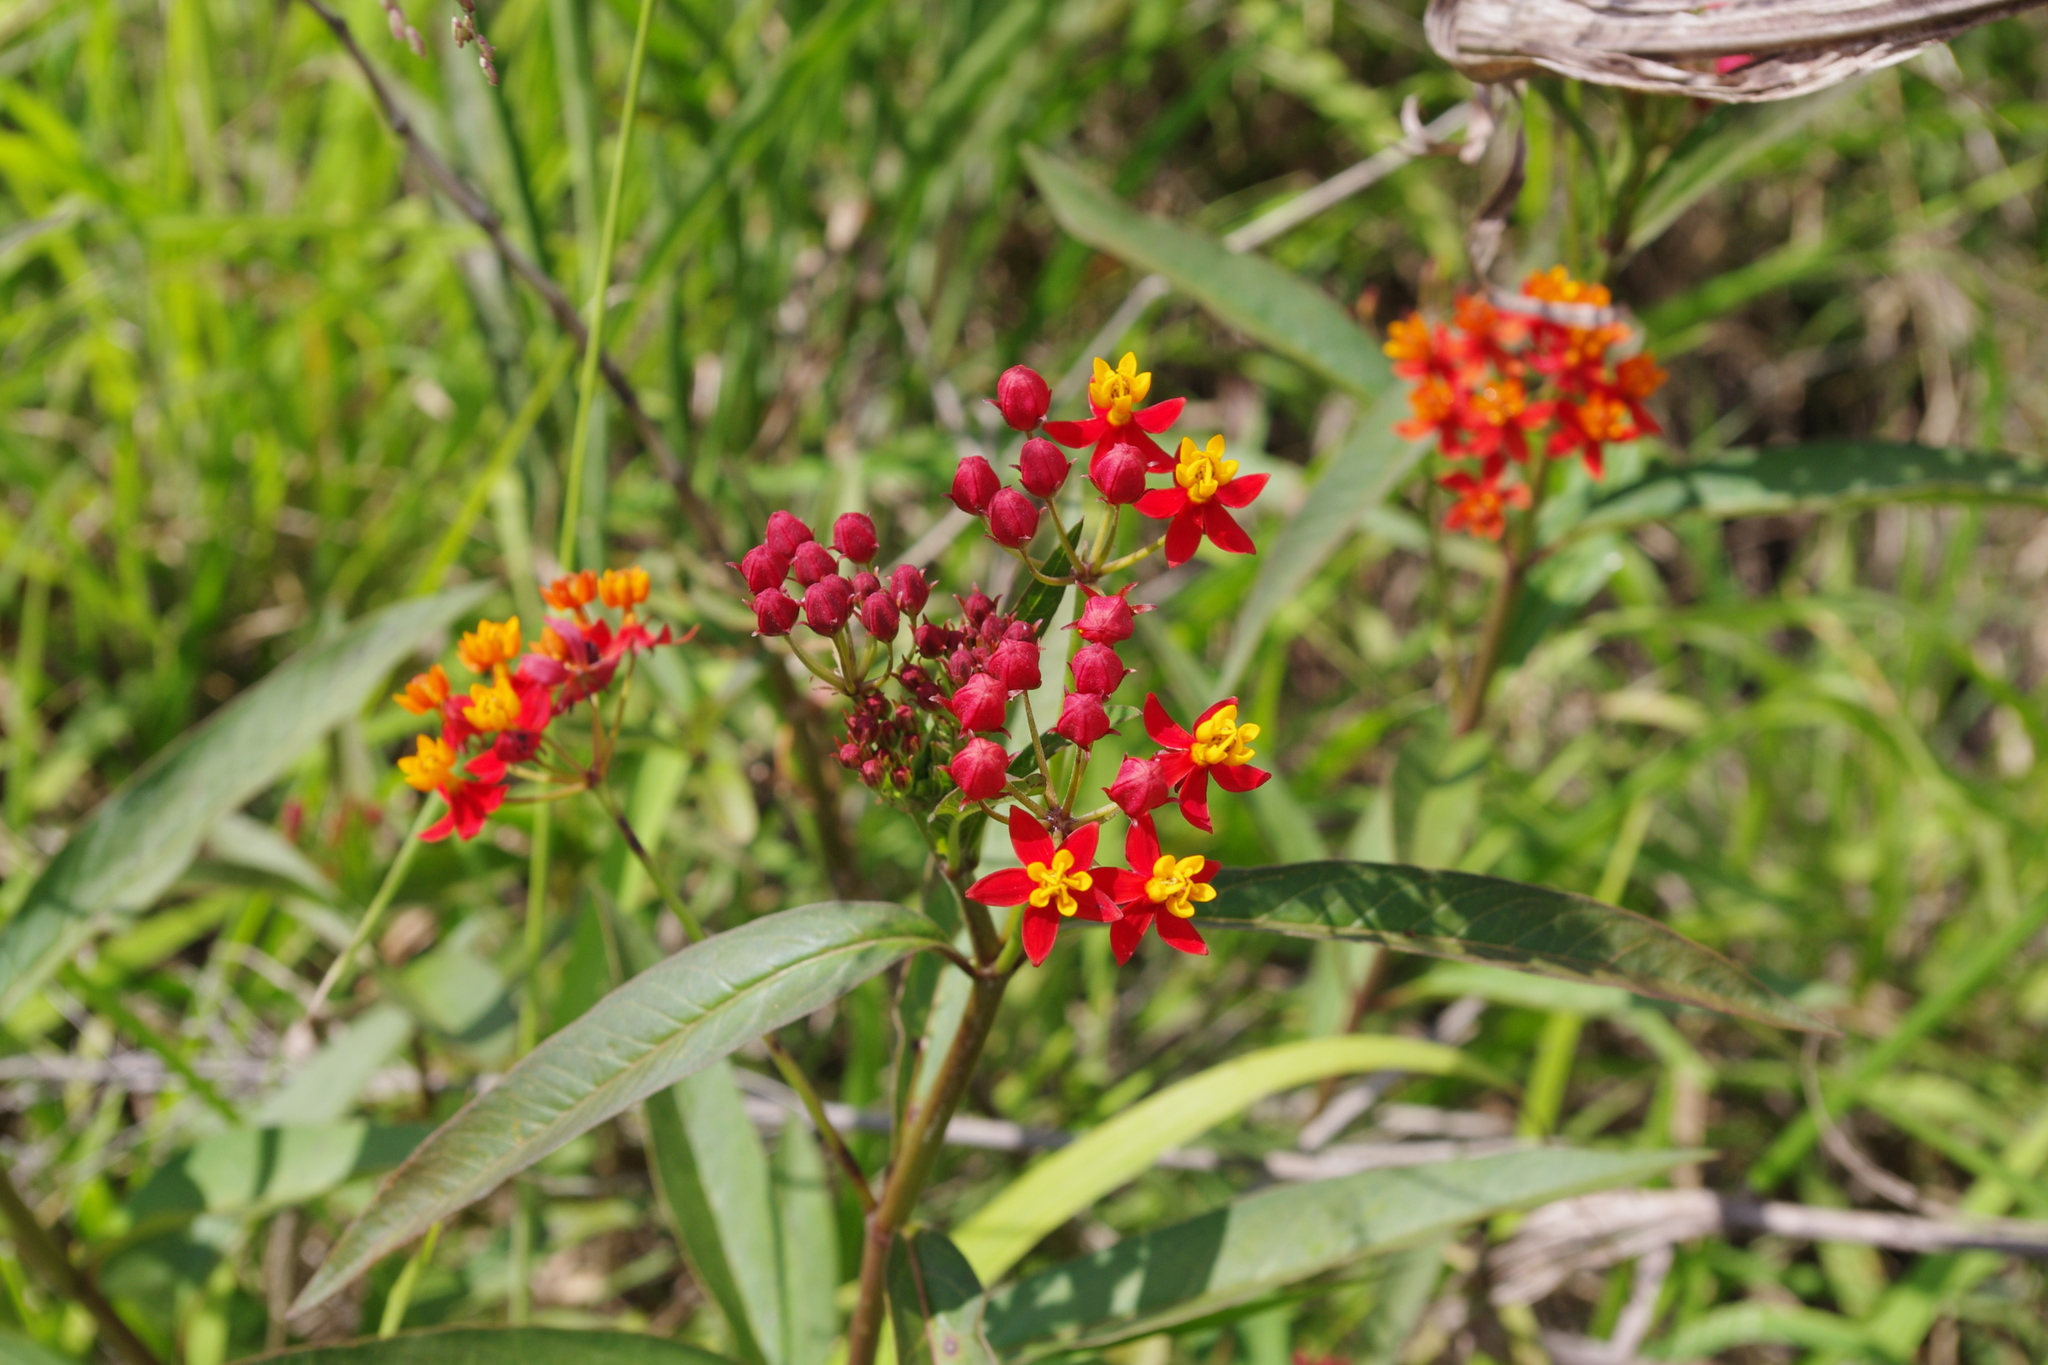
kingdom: Plantae
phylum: Tracheophyta
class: Magnoliopsida
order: Gentianales
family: Apocynaceae
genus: Asclepias
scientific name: Asclepias curassavica
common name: Bloodflower
